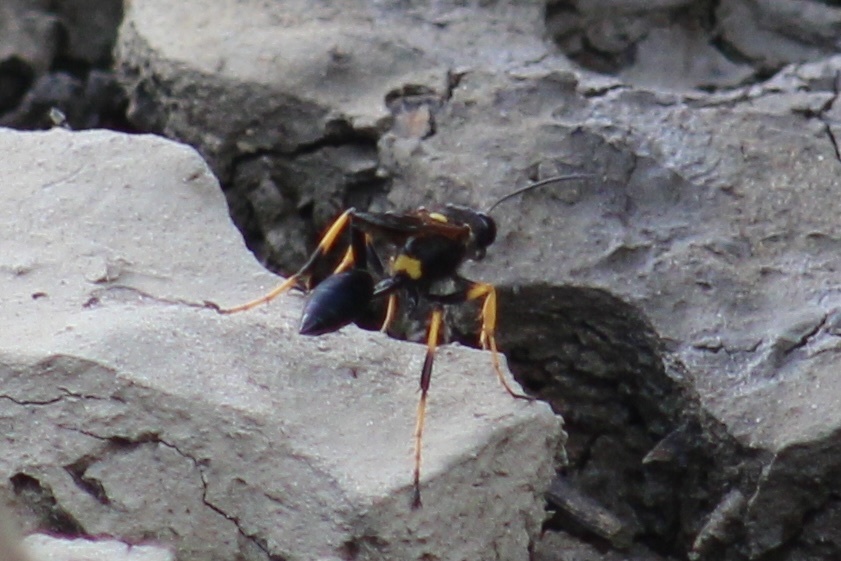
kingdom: Animalia
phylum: Arthropoda
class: Insecta
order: Hymenoptera
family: Sphecidae
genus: Sceliphron
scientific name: Sceliphron caementarium
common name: Mud dauber
